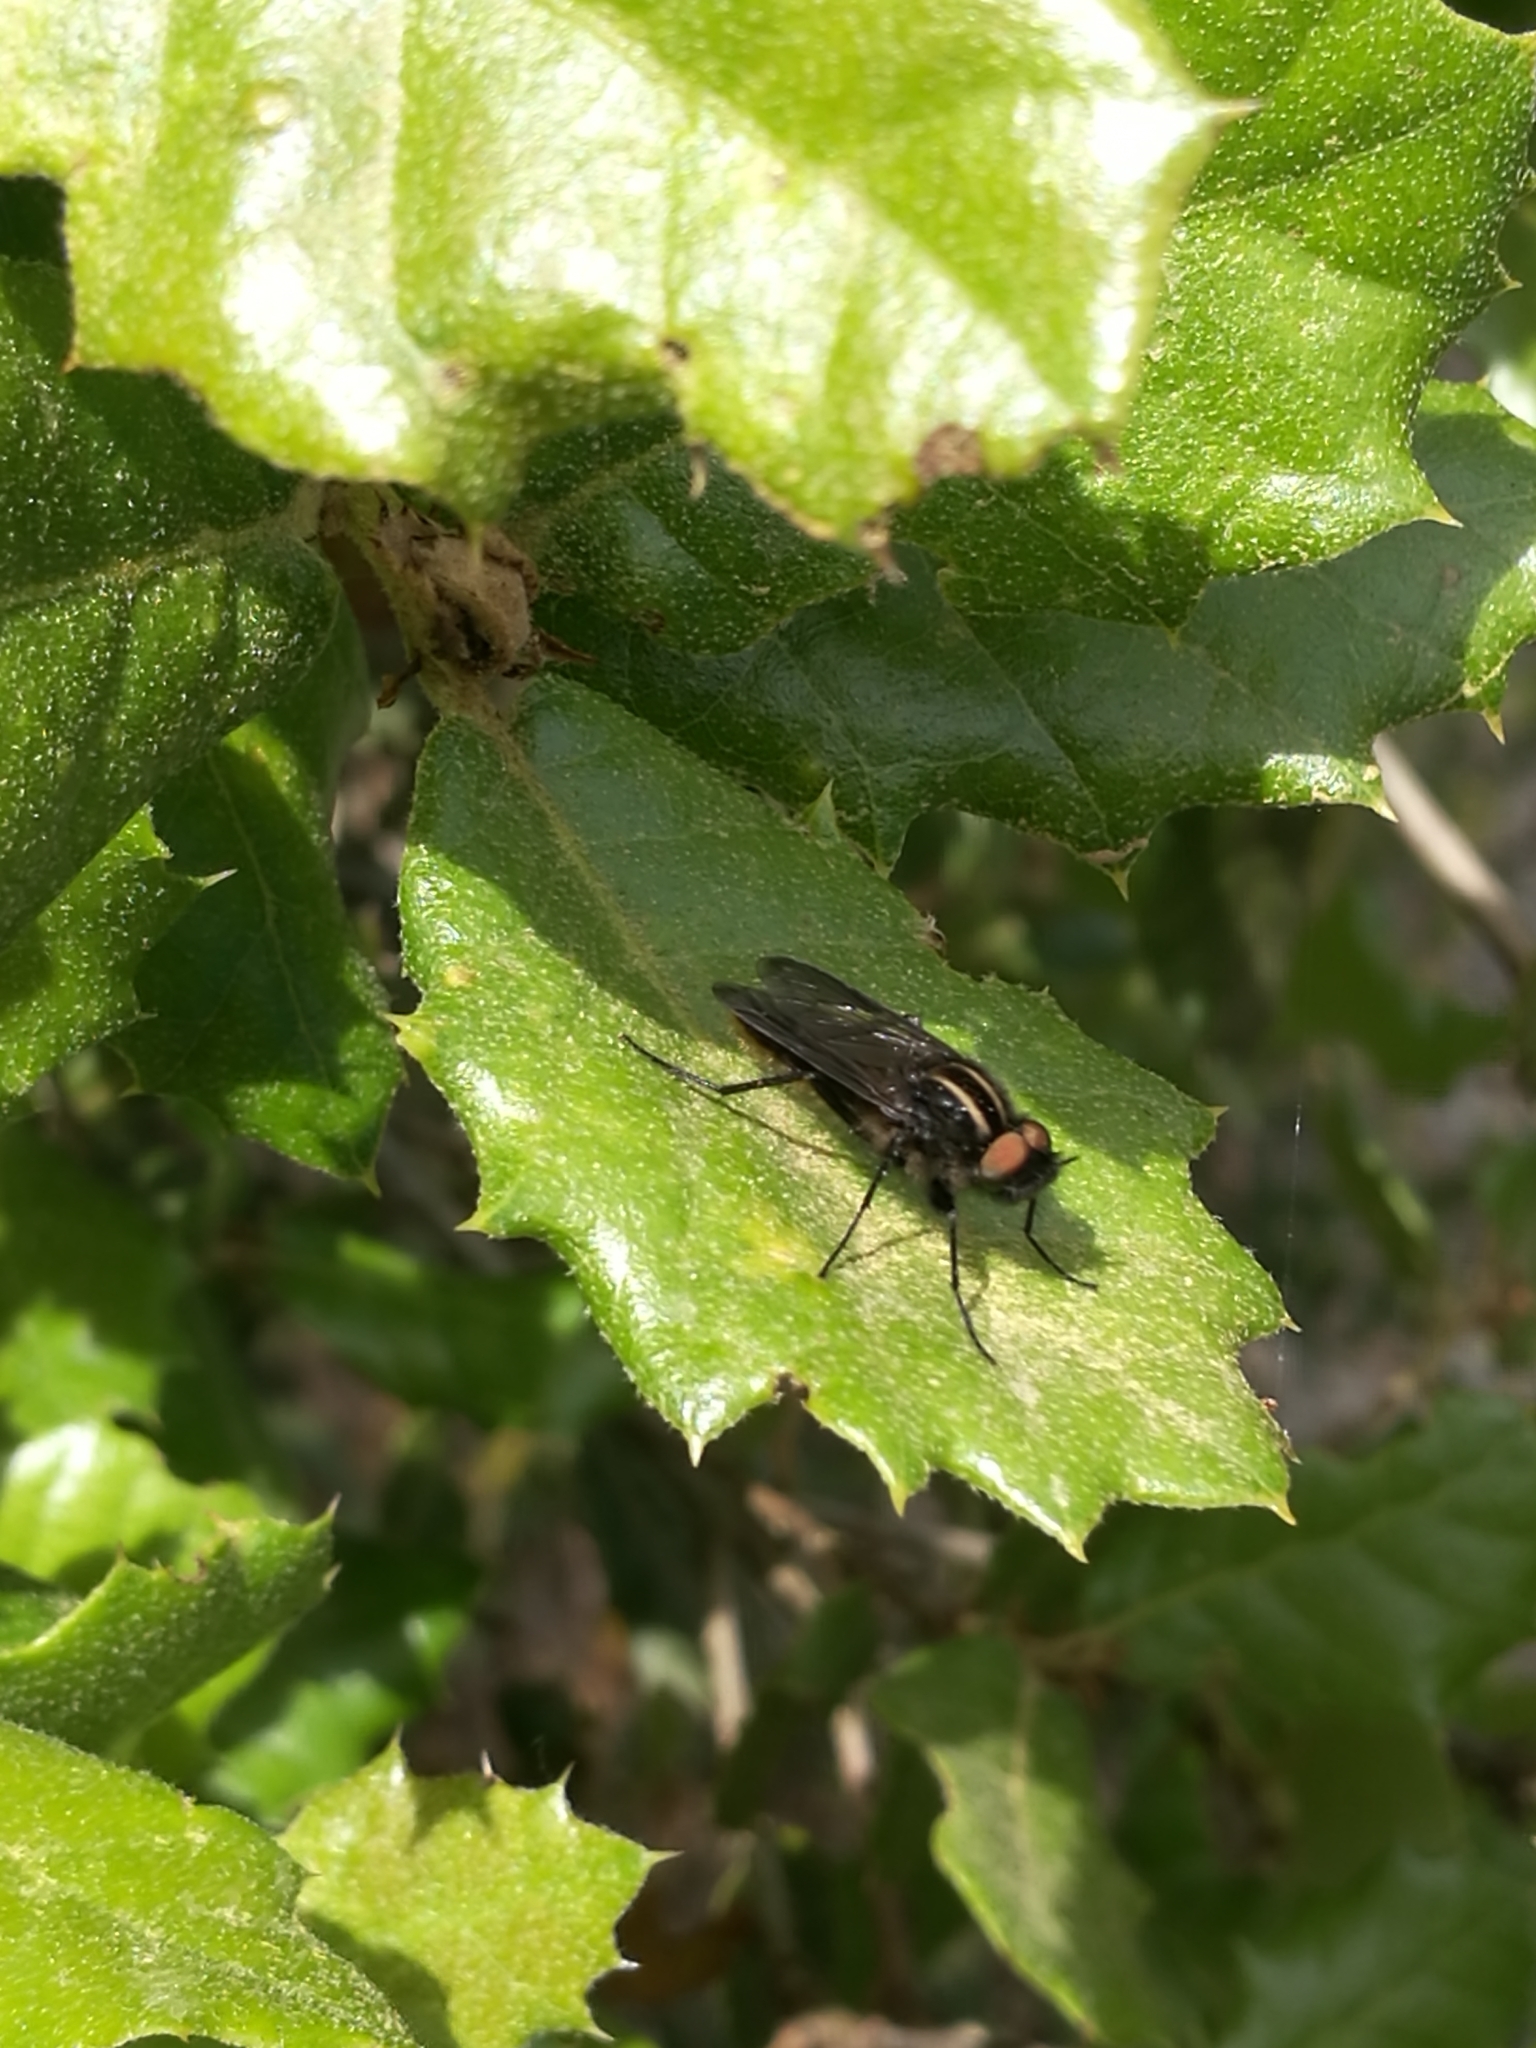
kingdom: Animalia
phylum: Arthropoda
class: Insecta
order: Diptera
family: Therevidae
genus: Thereva
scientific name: Thereva albovittata
